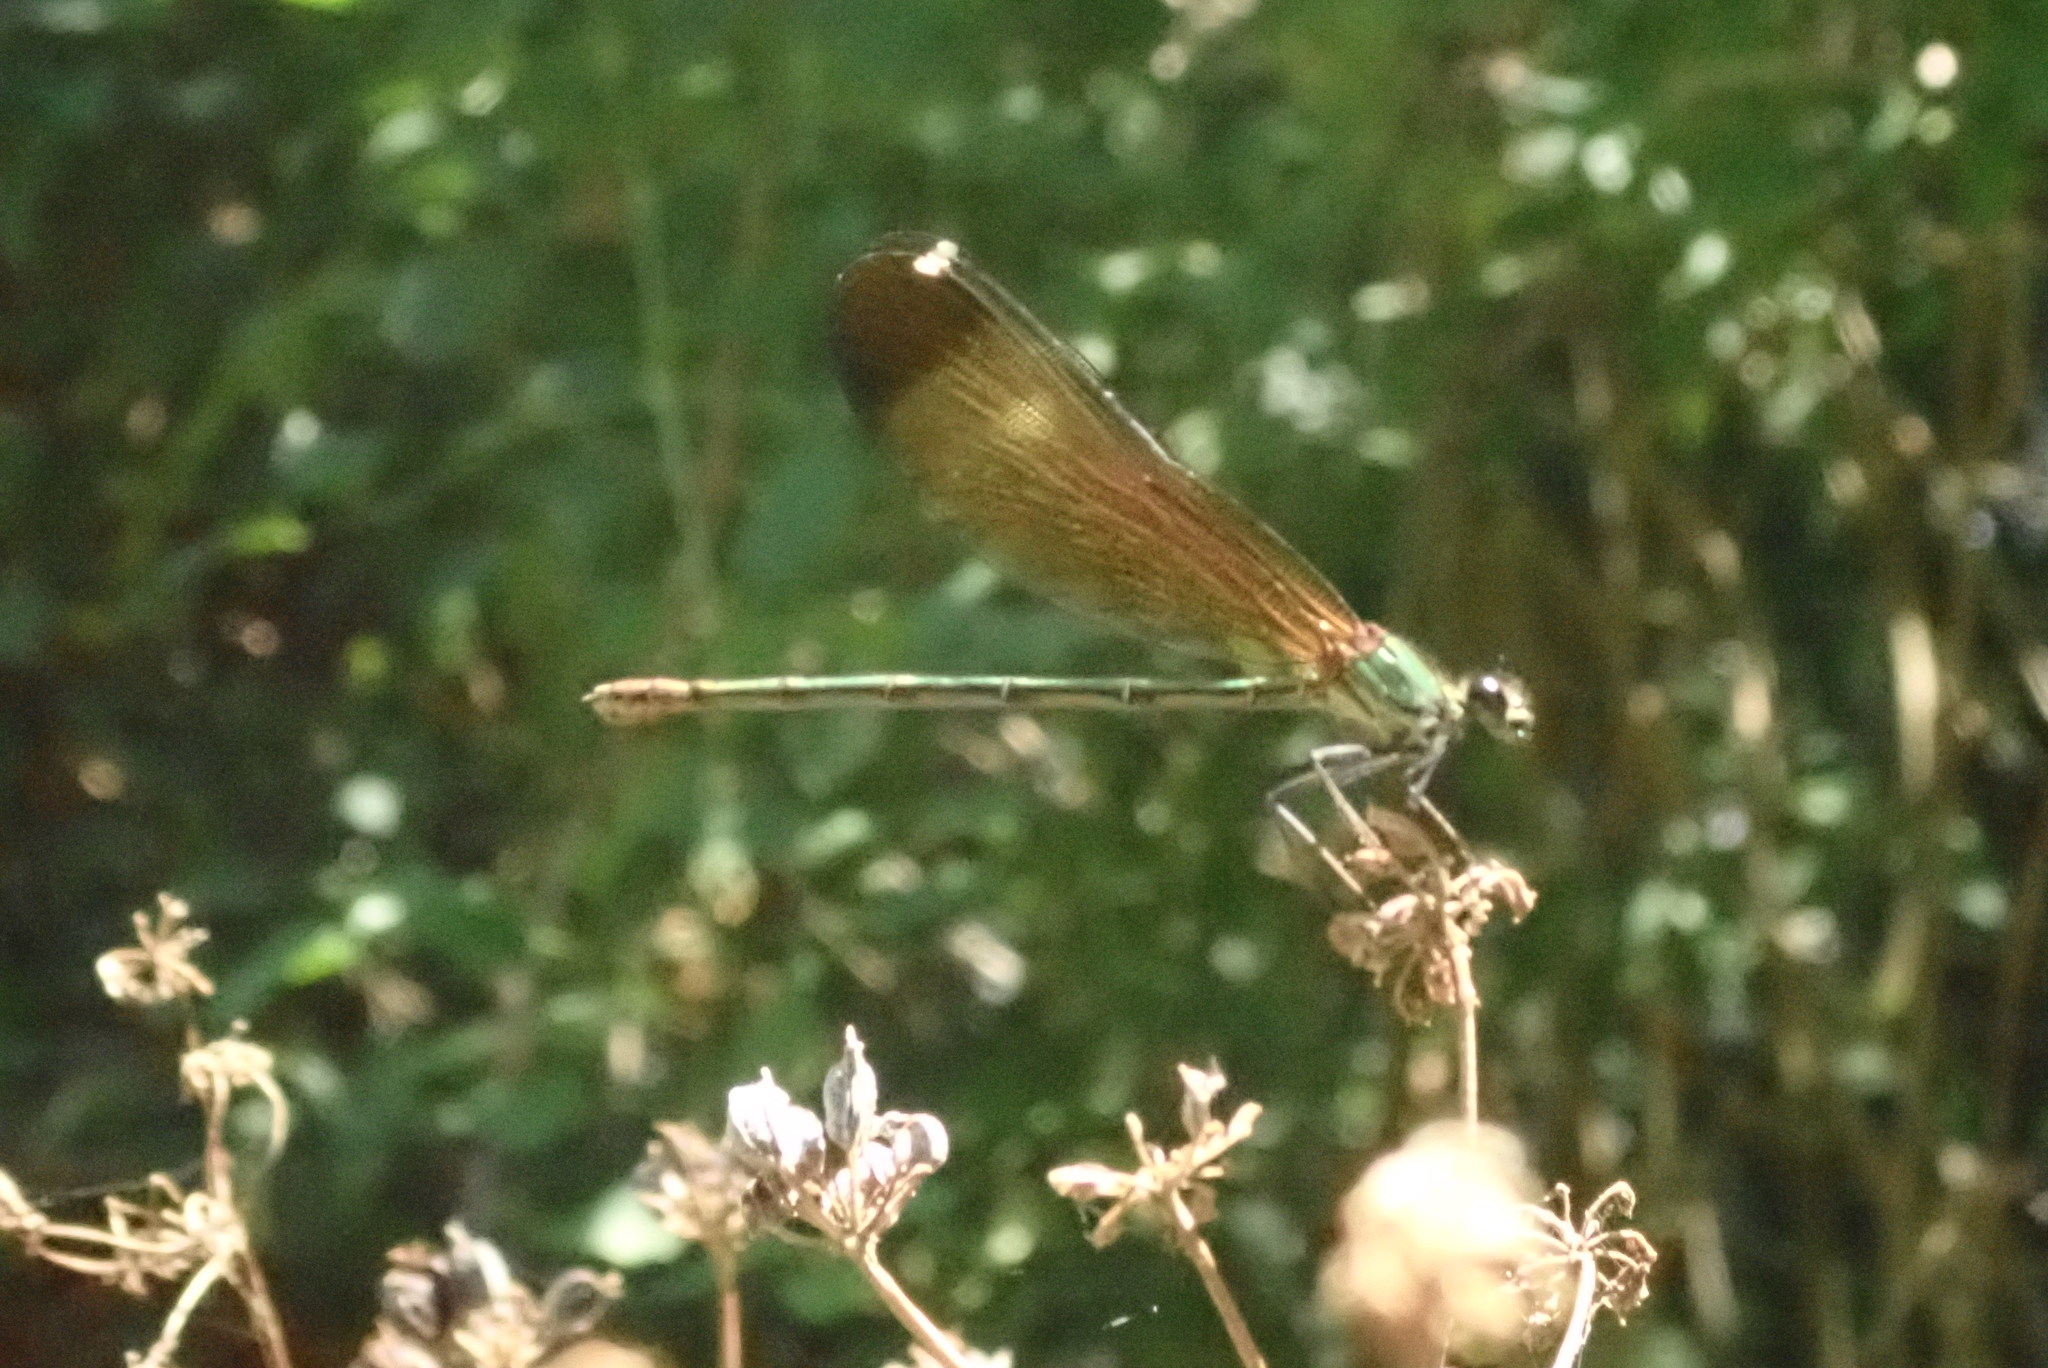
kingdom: Animalia
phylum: Arthropoda
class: Insecta
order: Odonata
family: Calopterygidae
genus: Calopteryx
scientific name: Calopteryx haemorrhoidalis
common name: Copper demoiselle
